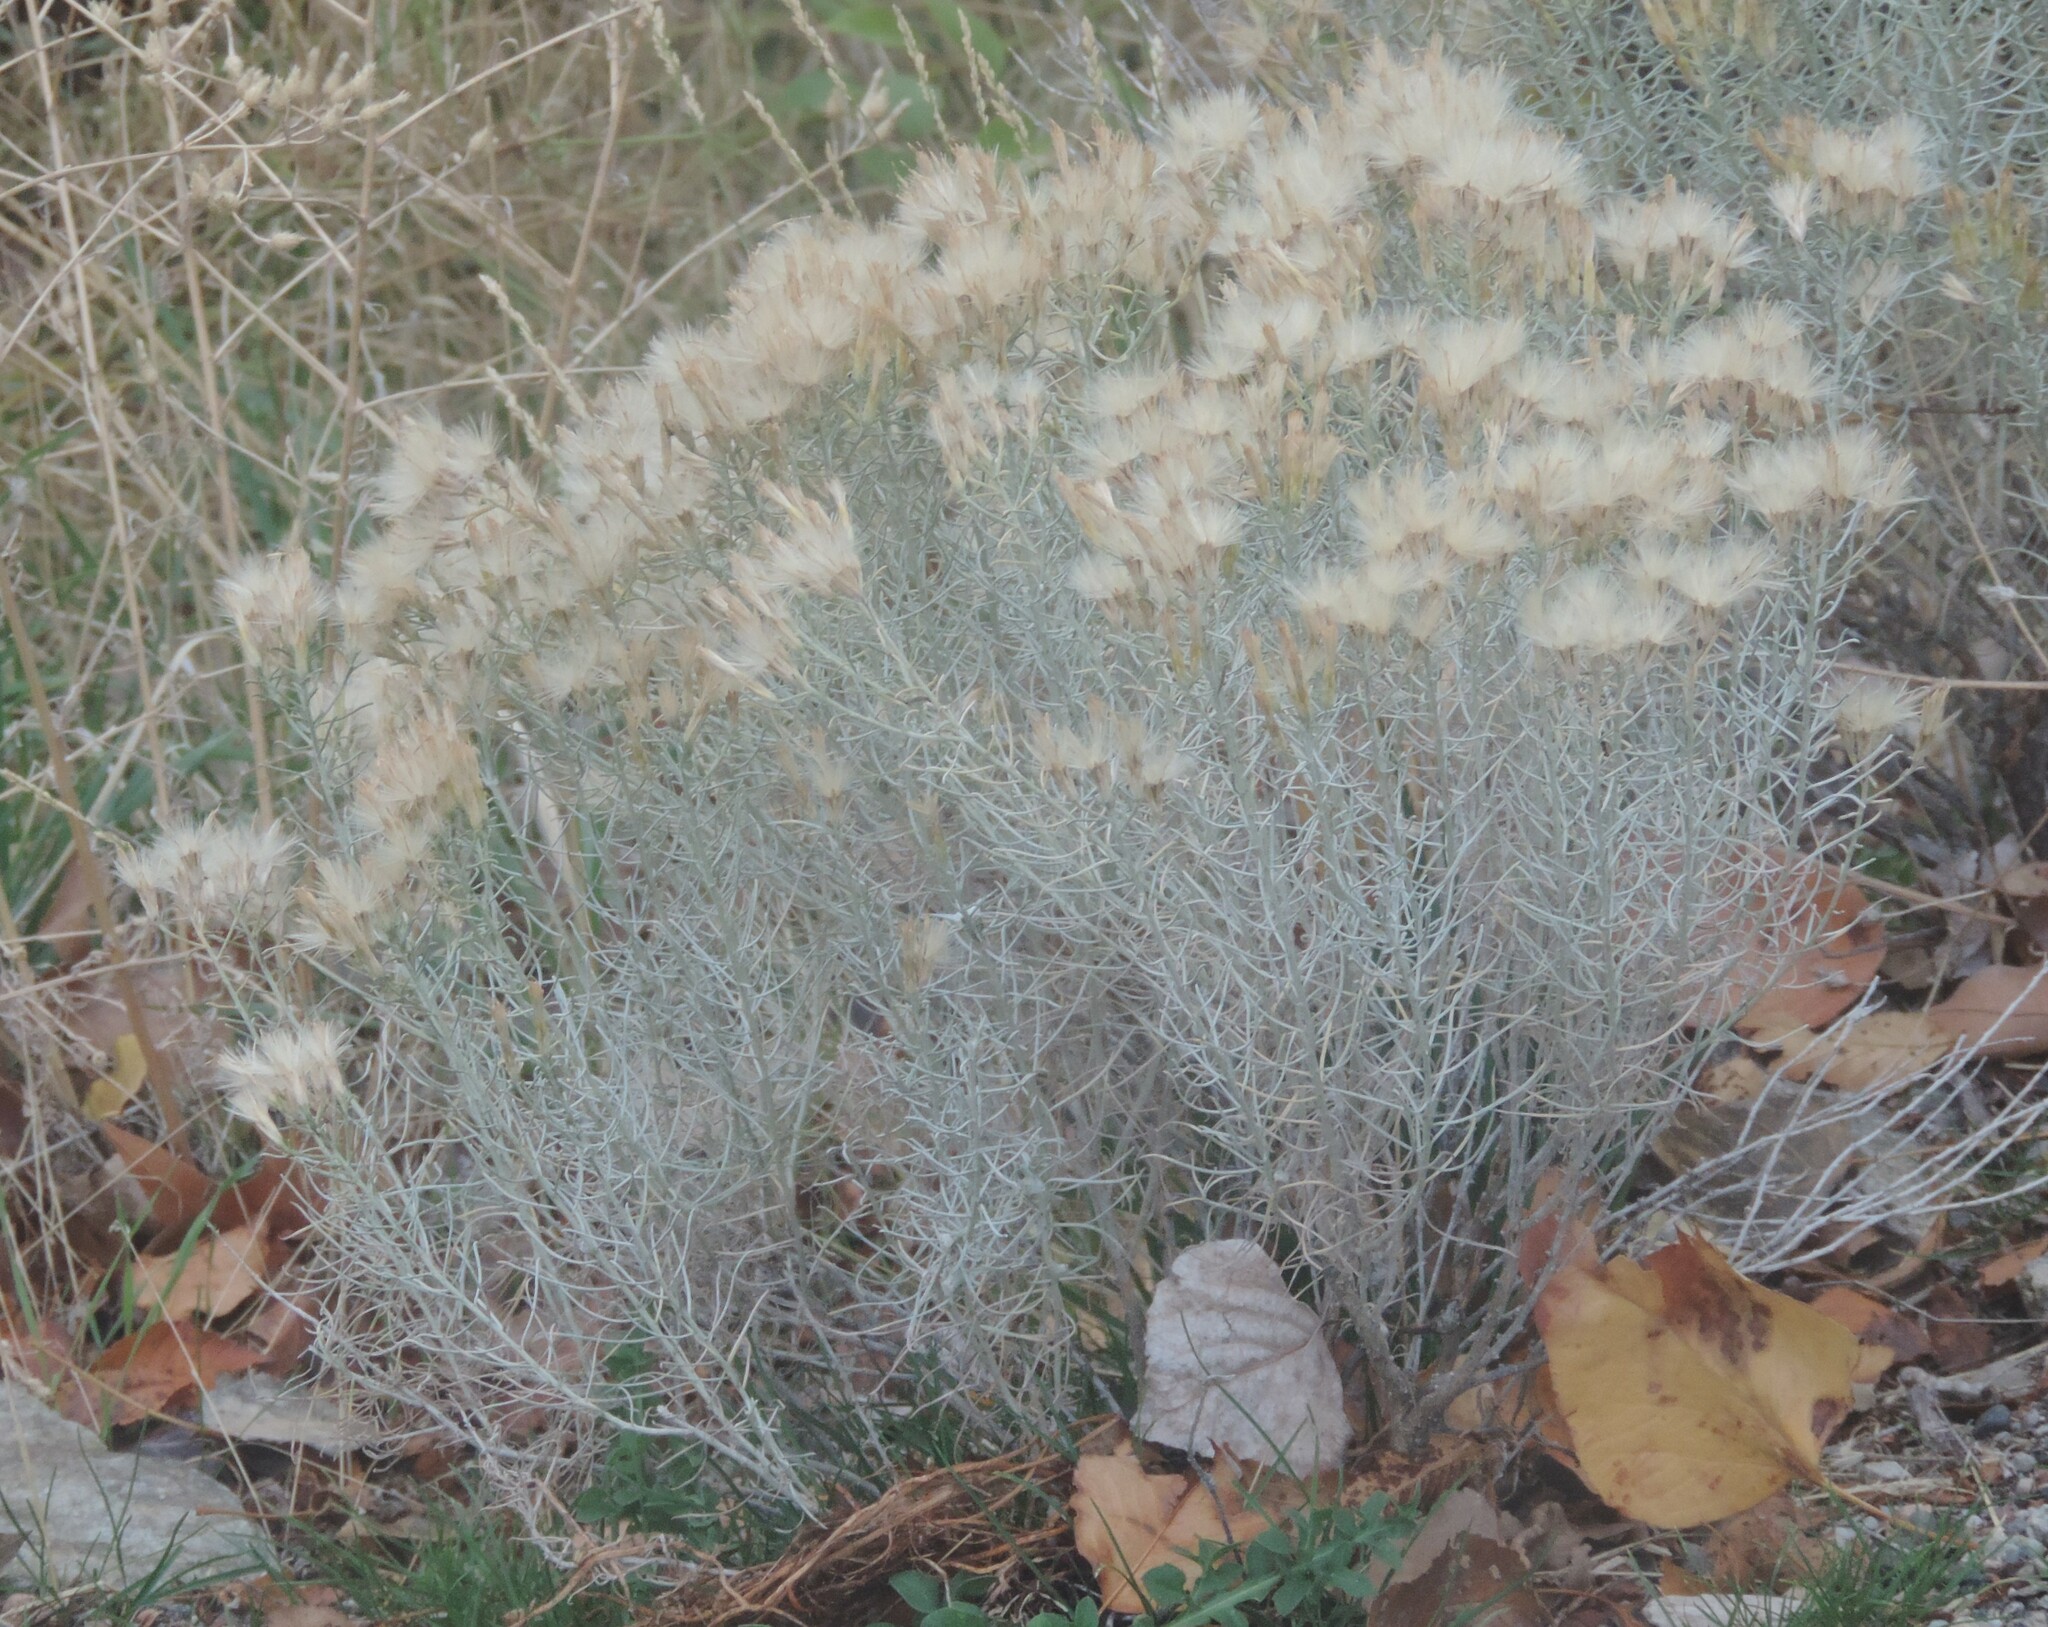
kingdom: Plantae
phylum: Tracheophyta
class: Magnoliopsida
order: Asterales
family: Asteraceae
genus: Ericameria
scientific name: Ericameria nauseosa
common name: Rubber rabbitbrush
